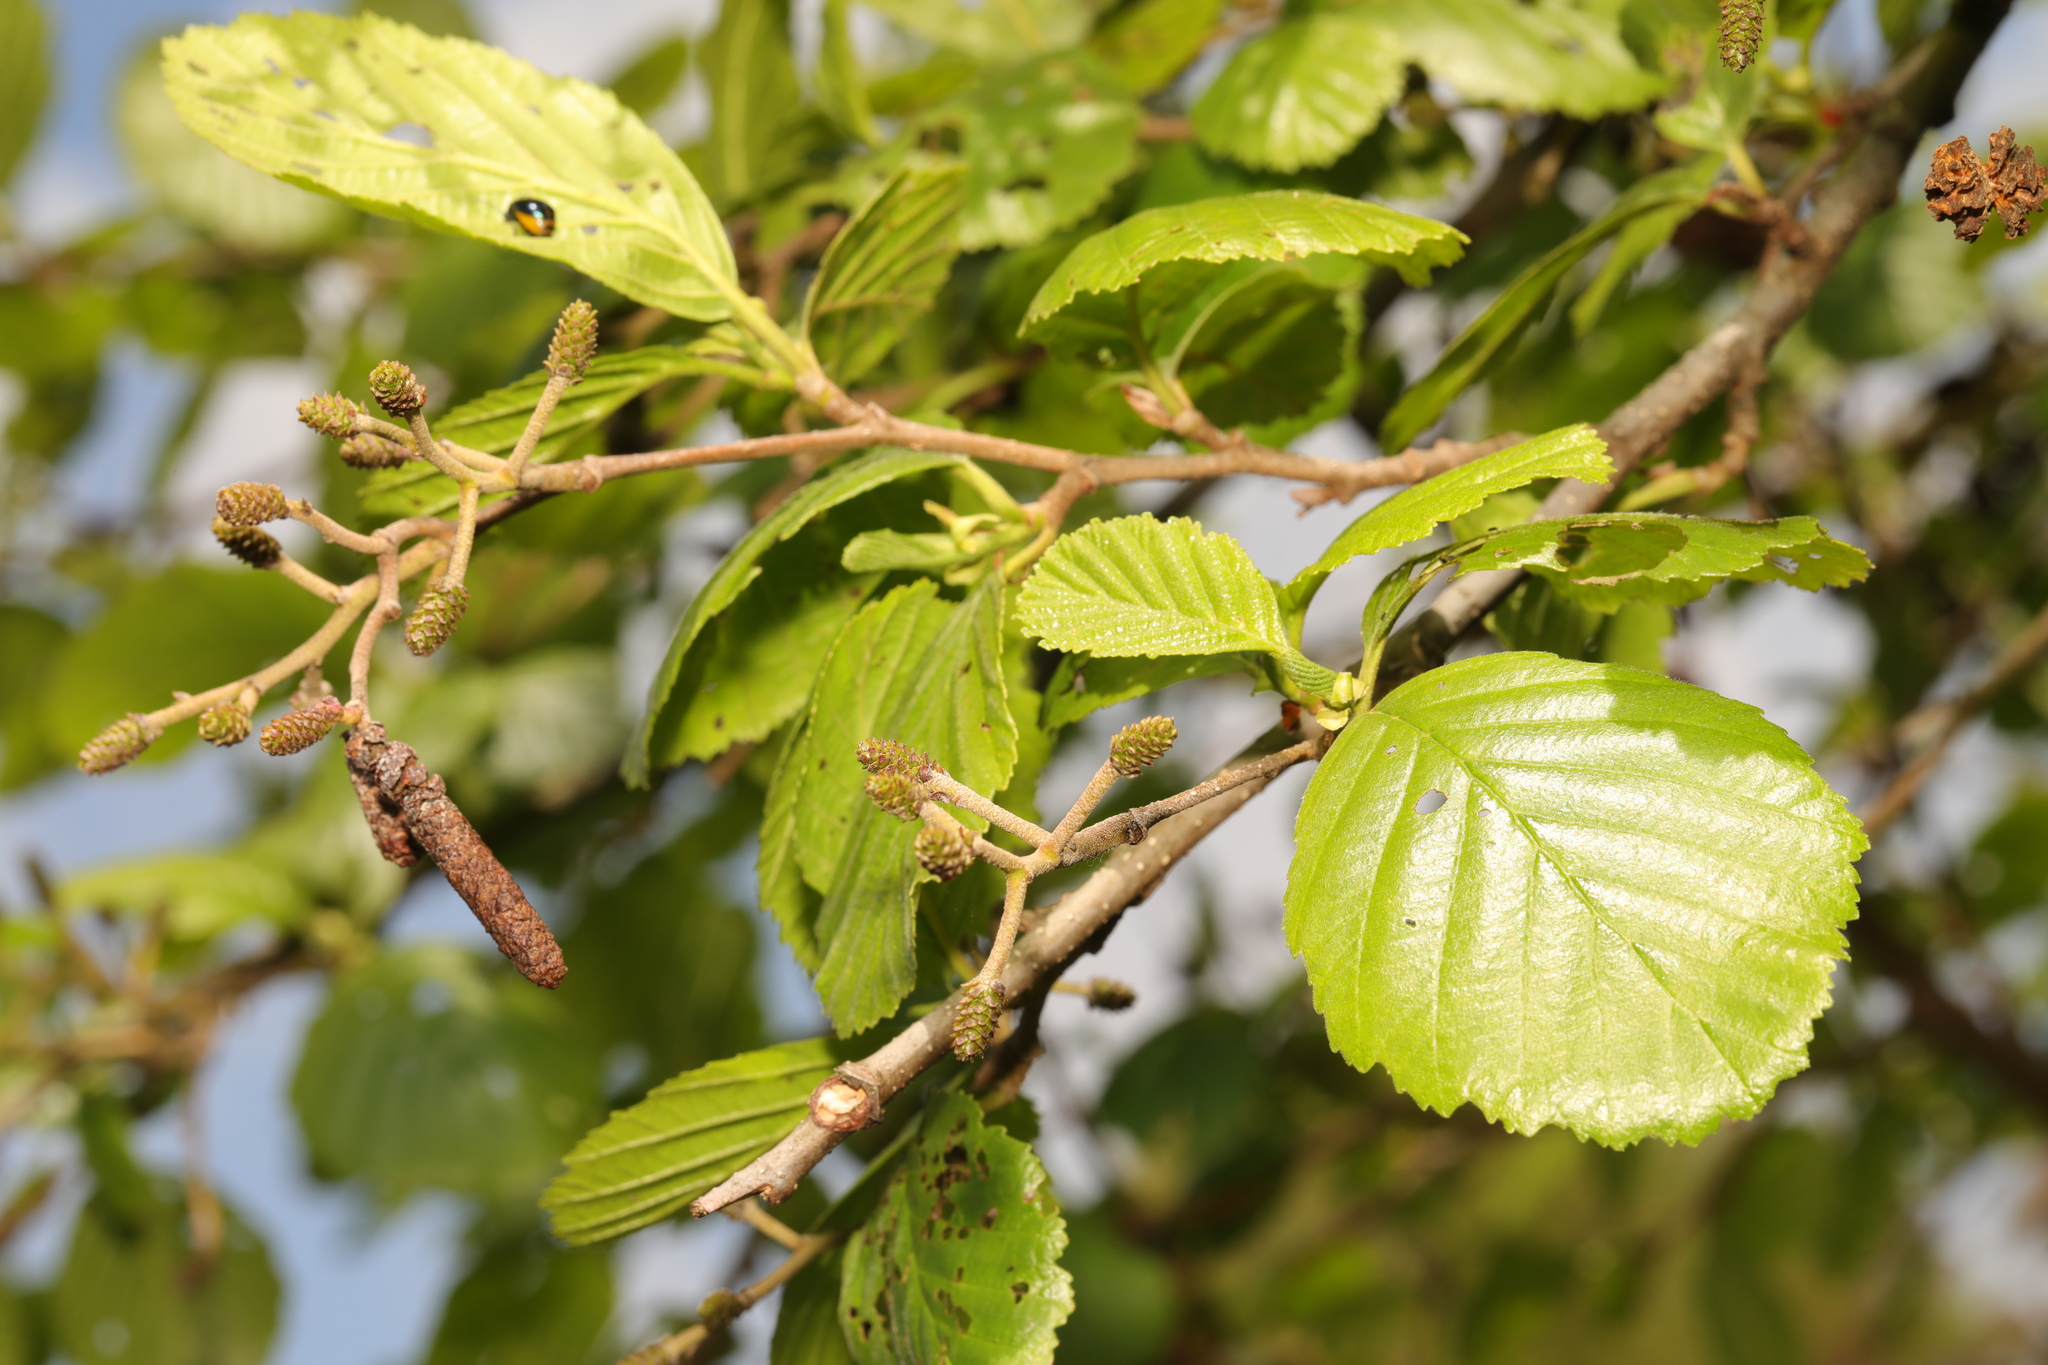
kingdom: Plantae
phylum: Tracheophyta
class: Magnoliopsida
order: Fagales
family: Betulaceae
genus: Alnus
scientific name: Alnus glutinosa
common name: Black alder
